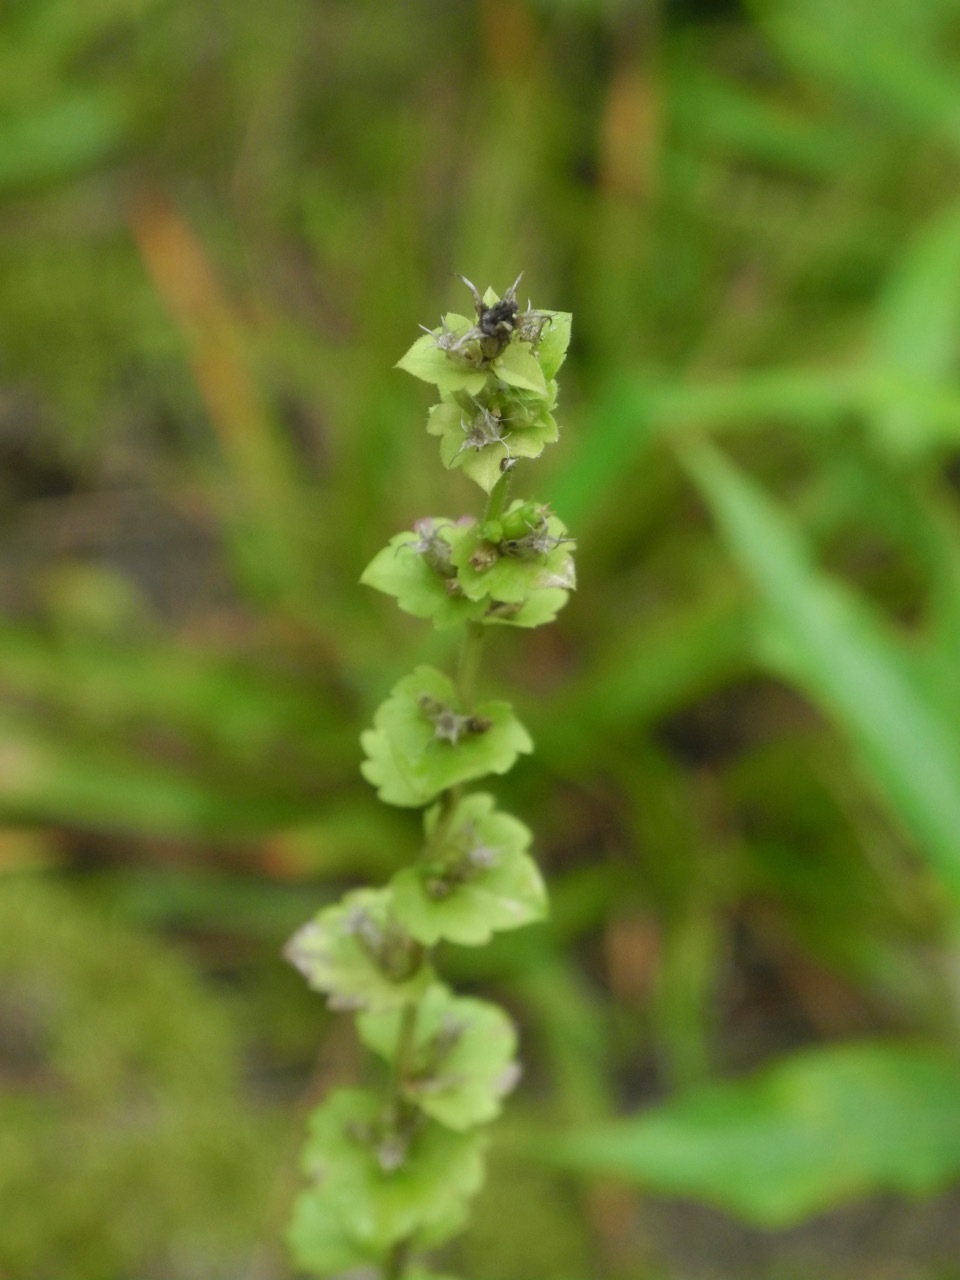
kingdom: Plantae
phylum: Tracheophyta
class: Magnoliopsida
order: Asterales
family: Campanulaceae
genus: Triodanis
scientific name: Triodanis perfoliata
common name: Clasping venus' looking-glass
